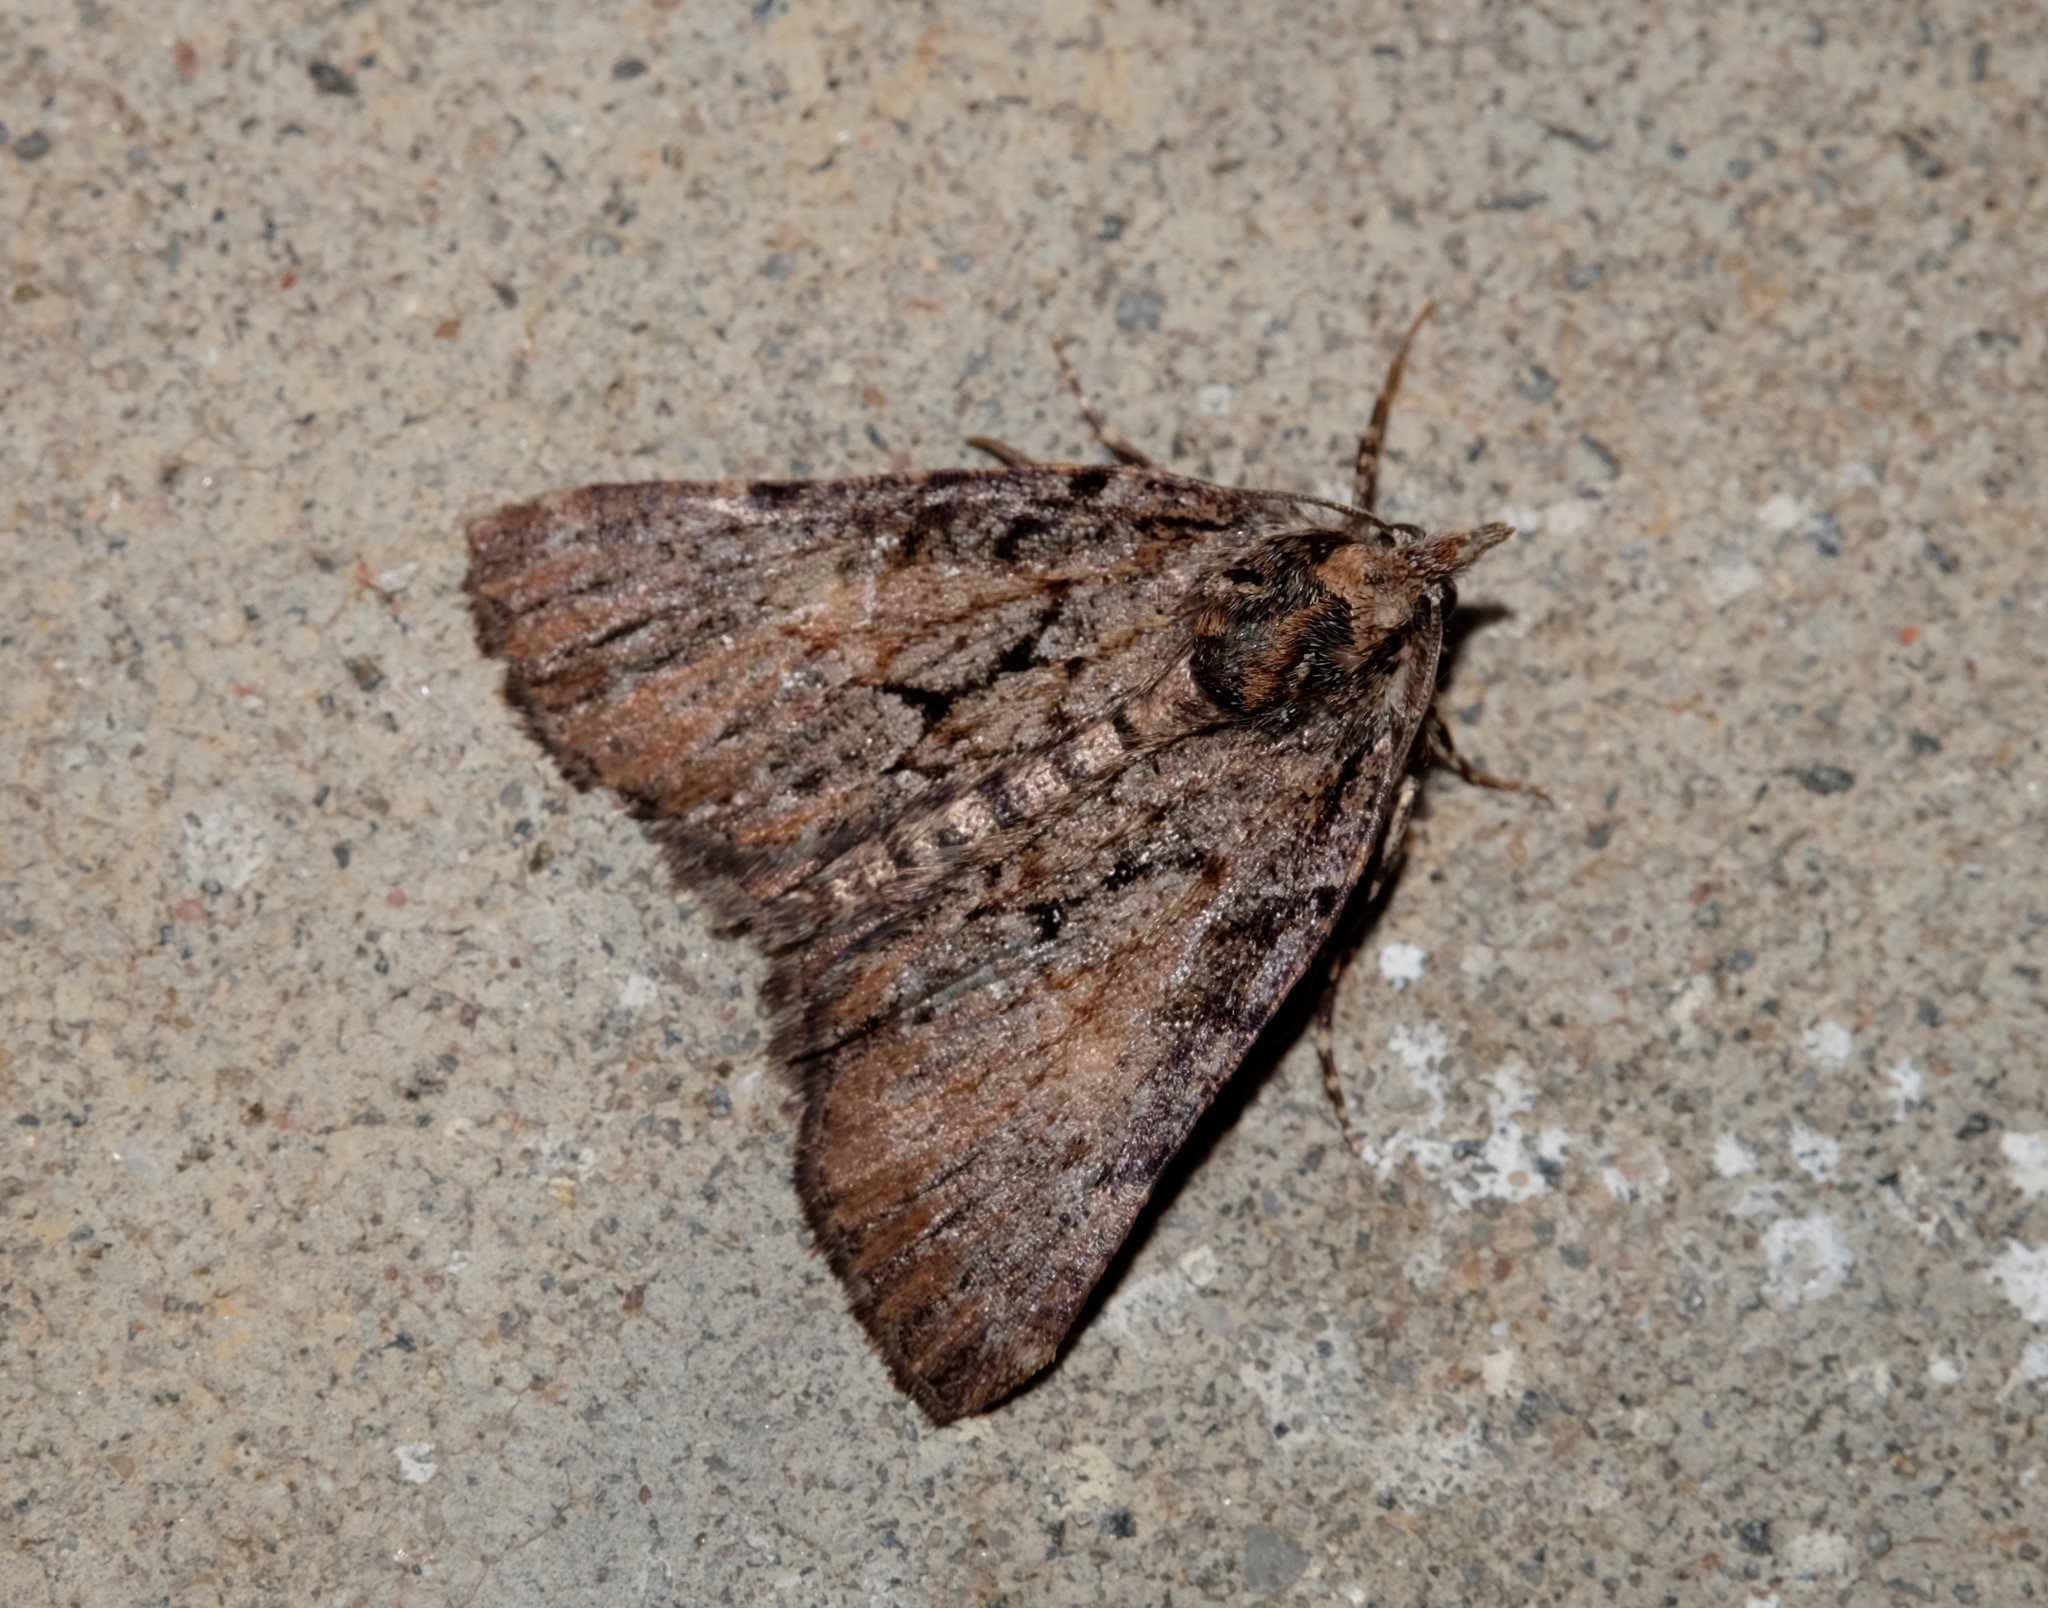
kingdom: Animalia
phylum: Arthropoda
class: Insecta
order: Lepidoptera
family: Geometridae
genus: Smyriodes
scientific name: Smyriodes
